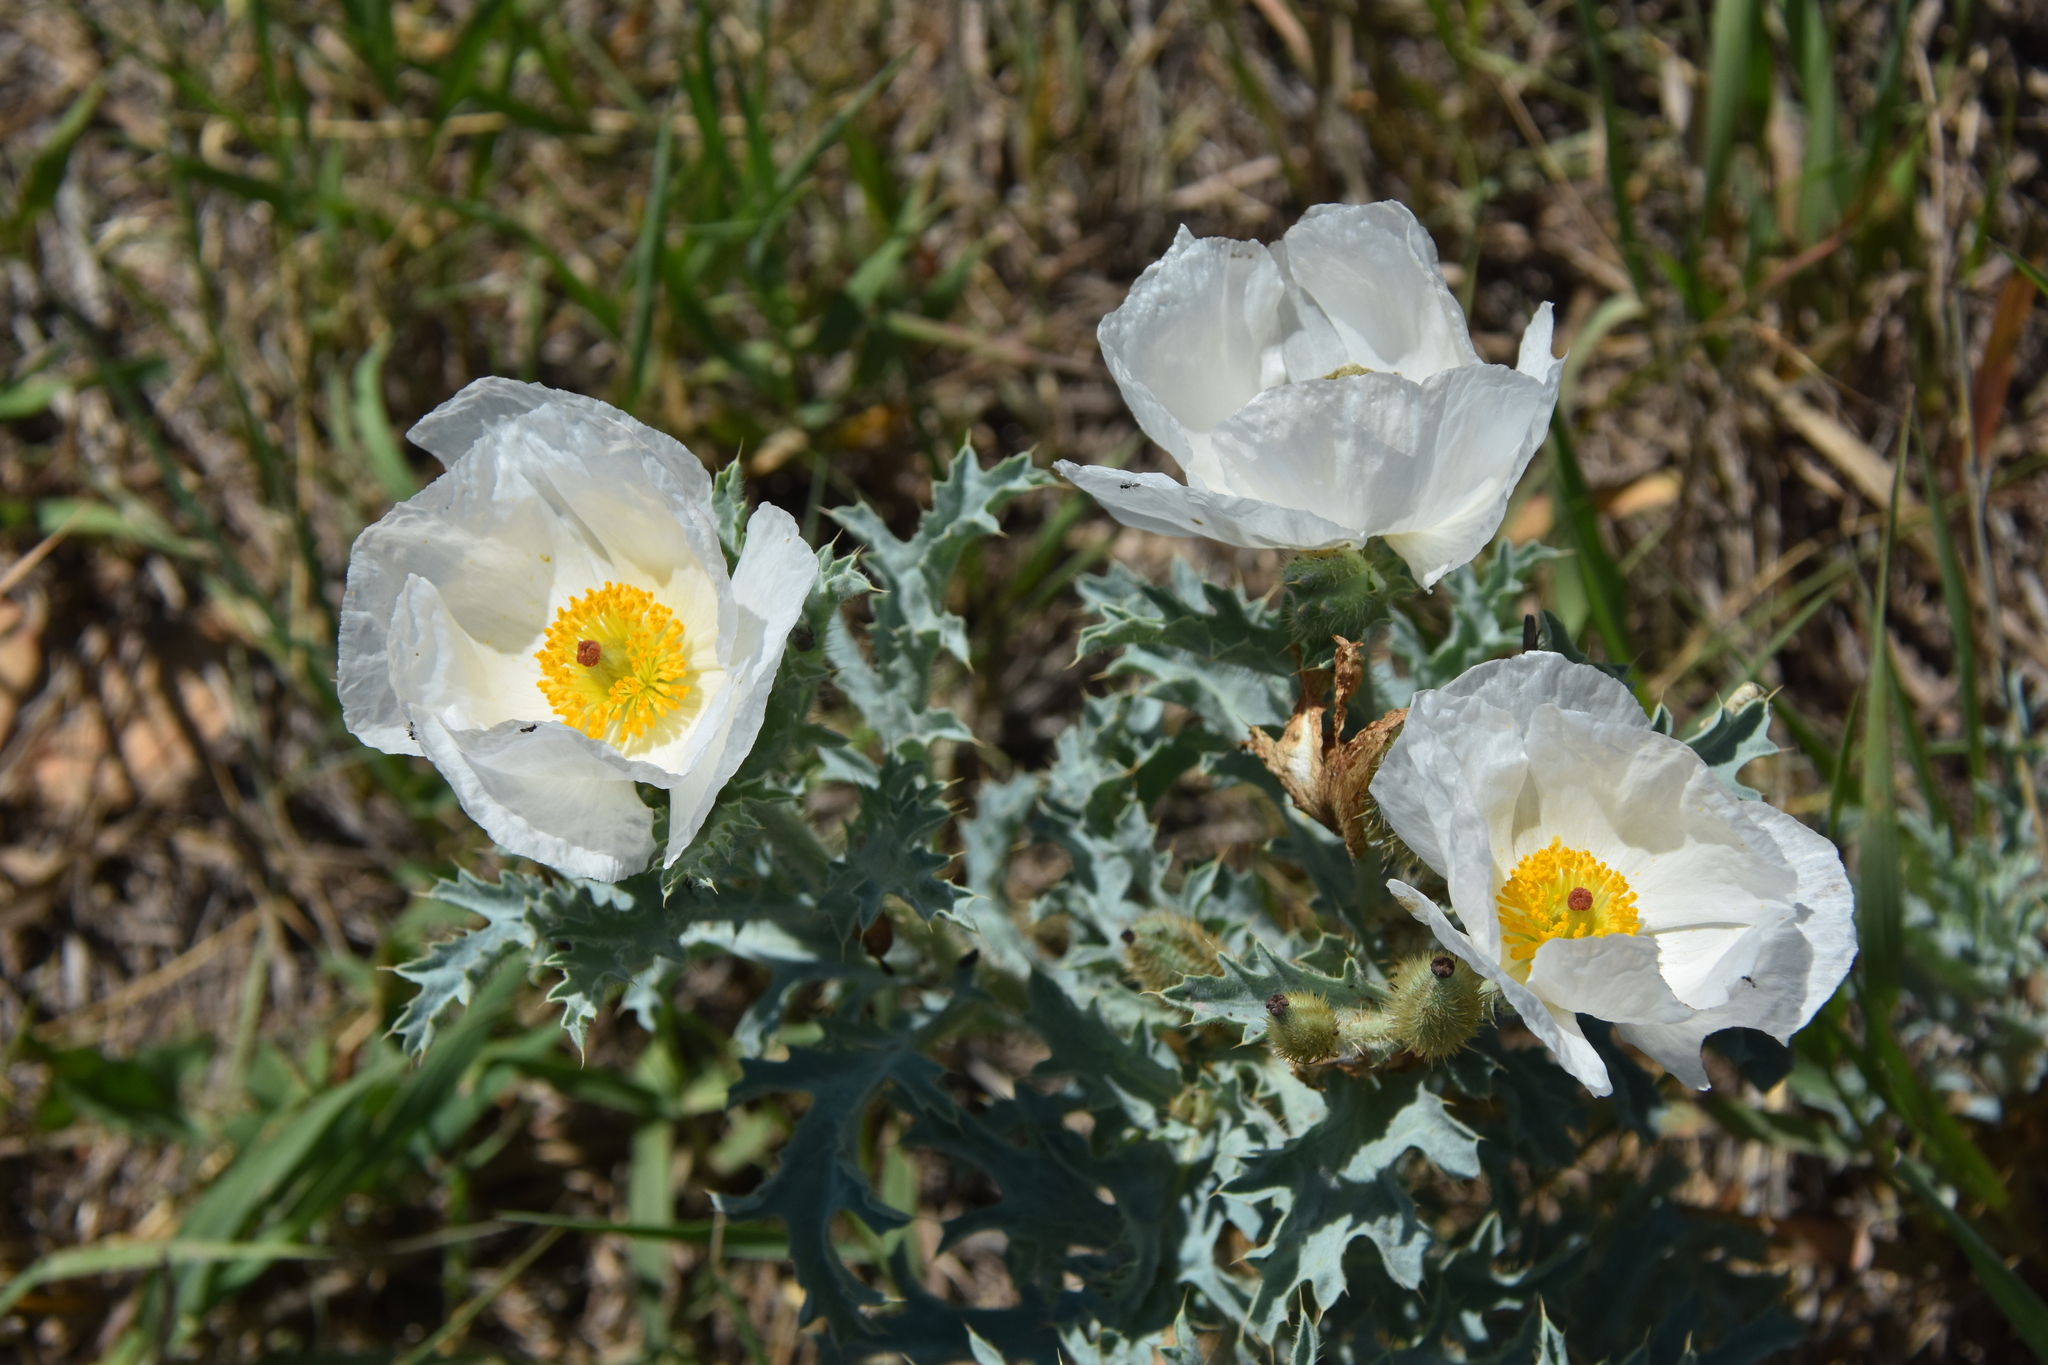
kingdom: Plantae
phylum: Tracheophyta
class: Magnoliopsida
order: Ranunculales
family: Papaveraceae
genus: Argemone
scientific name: Argemone hispida
